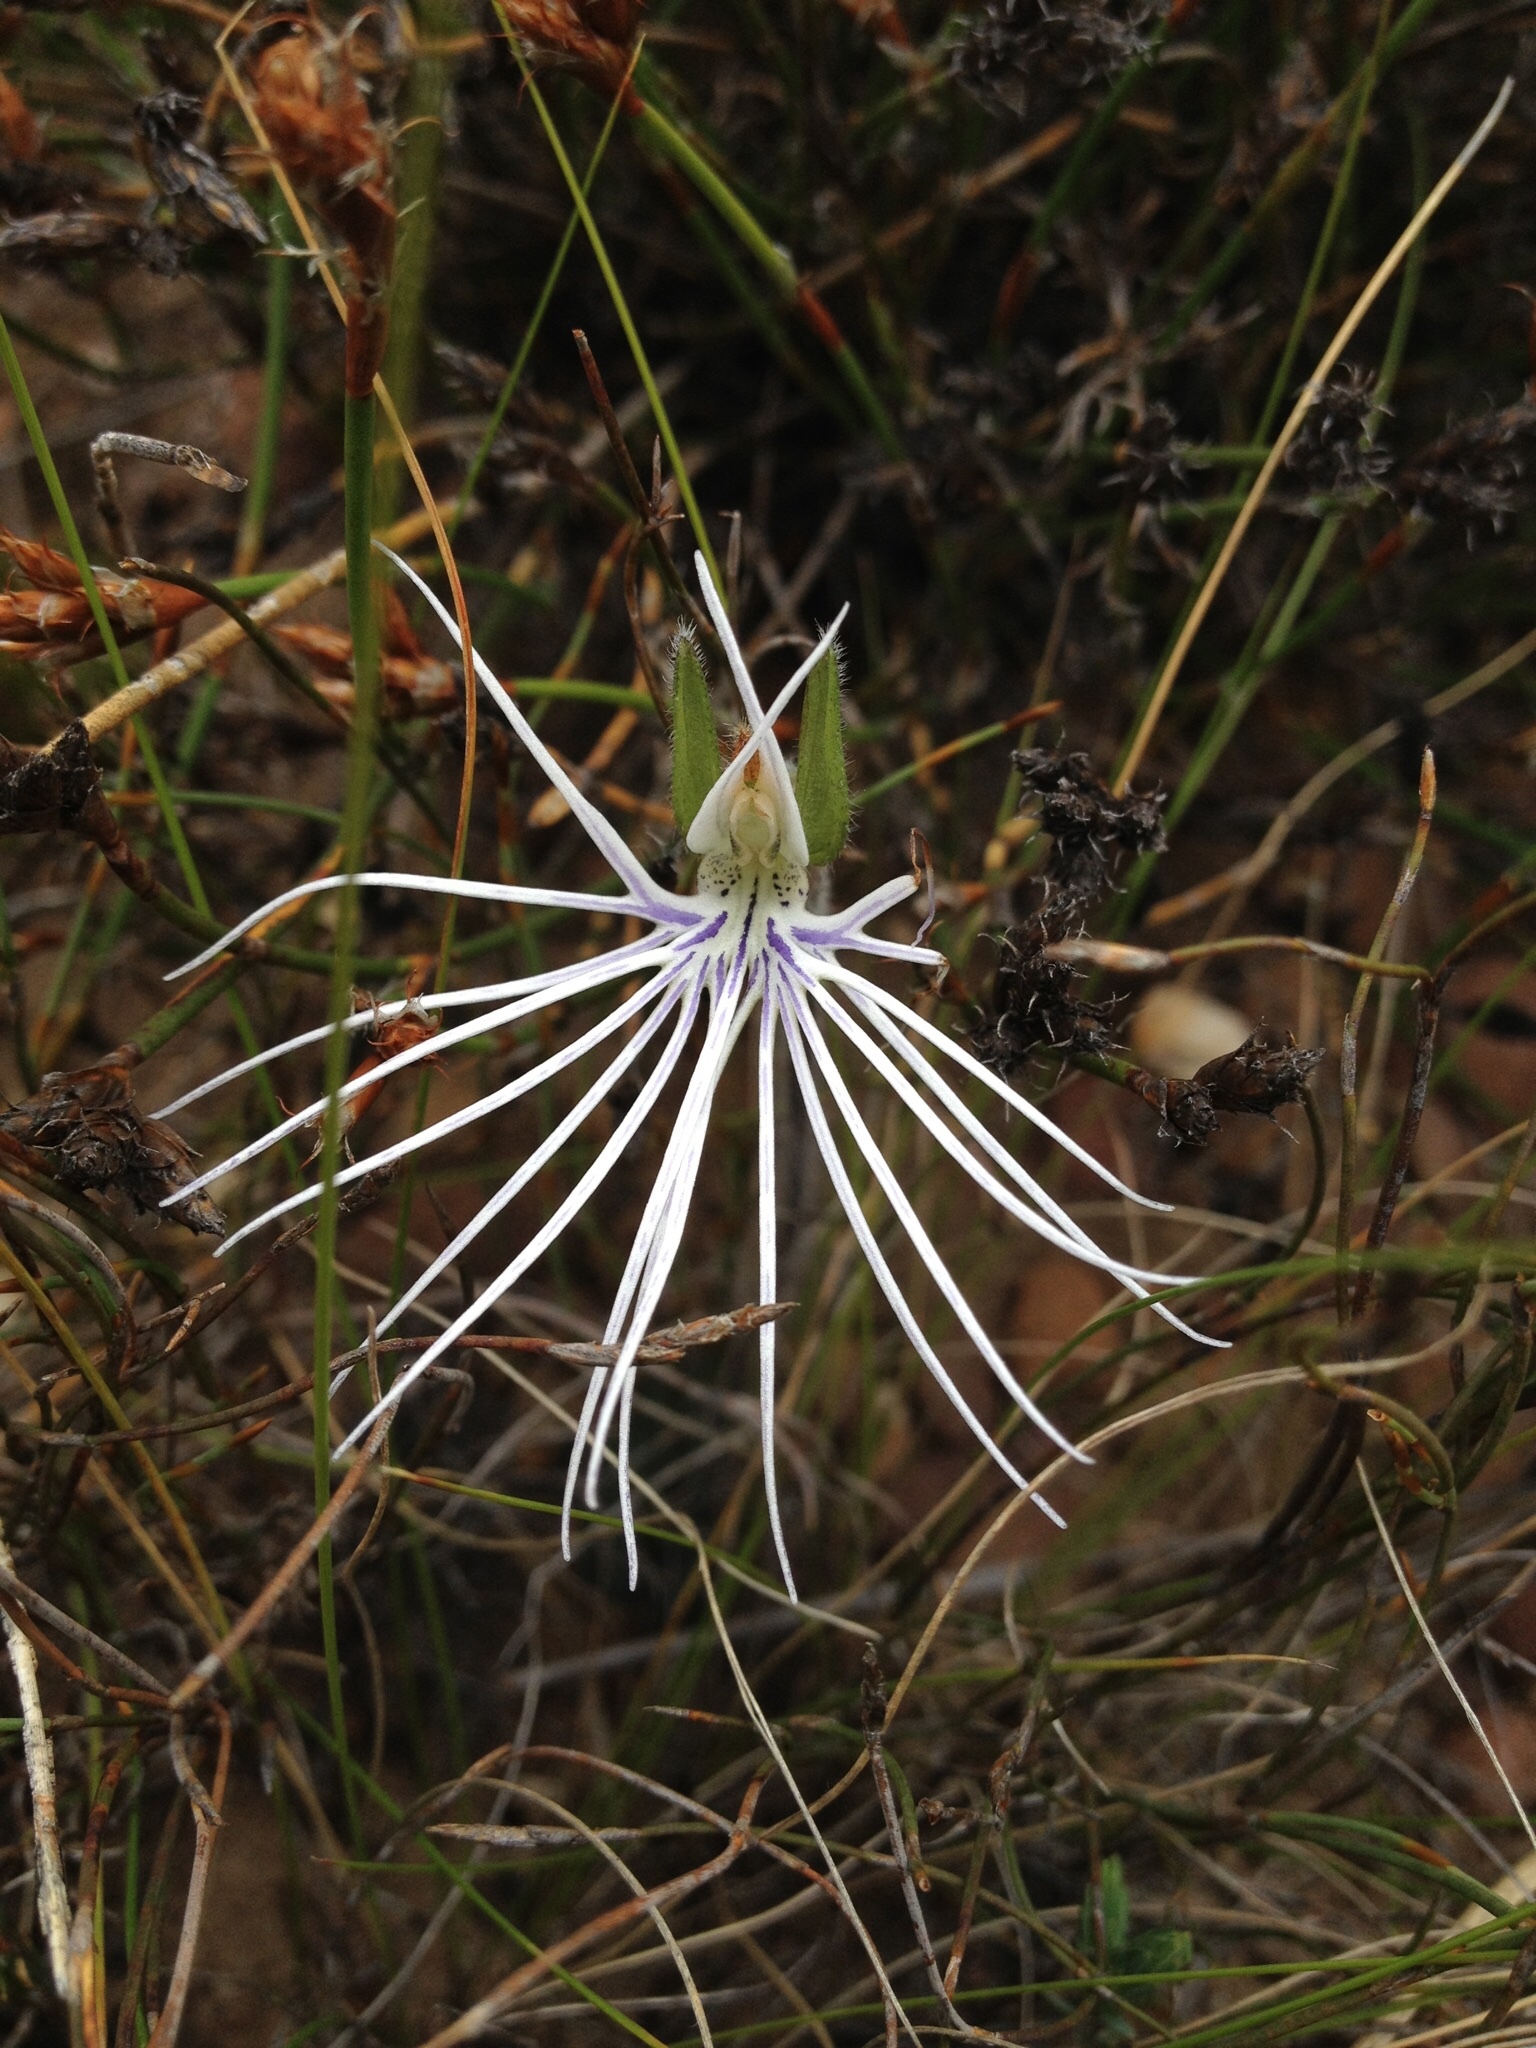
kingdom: Plantae
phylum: Tracheophyta
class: Liliopsida
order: Asparagales
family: Orchidaceae
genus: Holothrix
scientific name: Holothrix burmanniana
